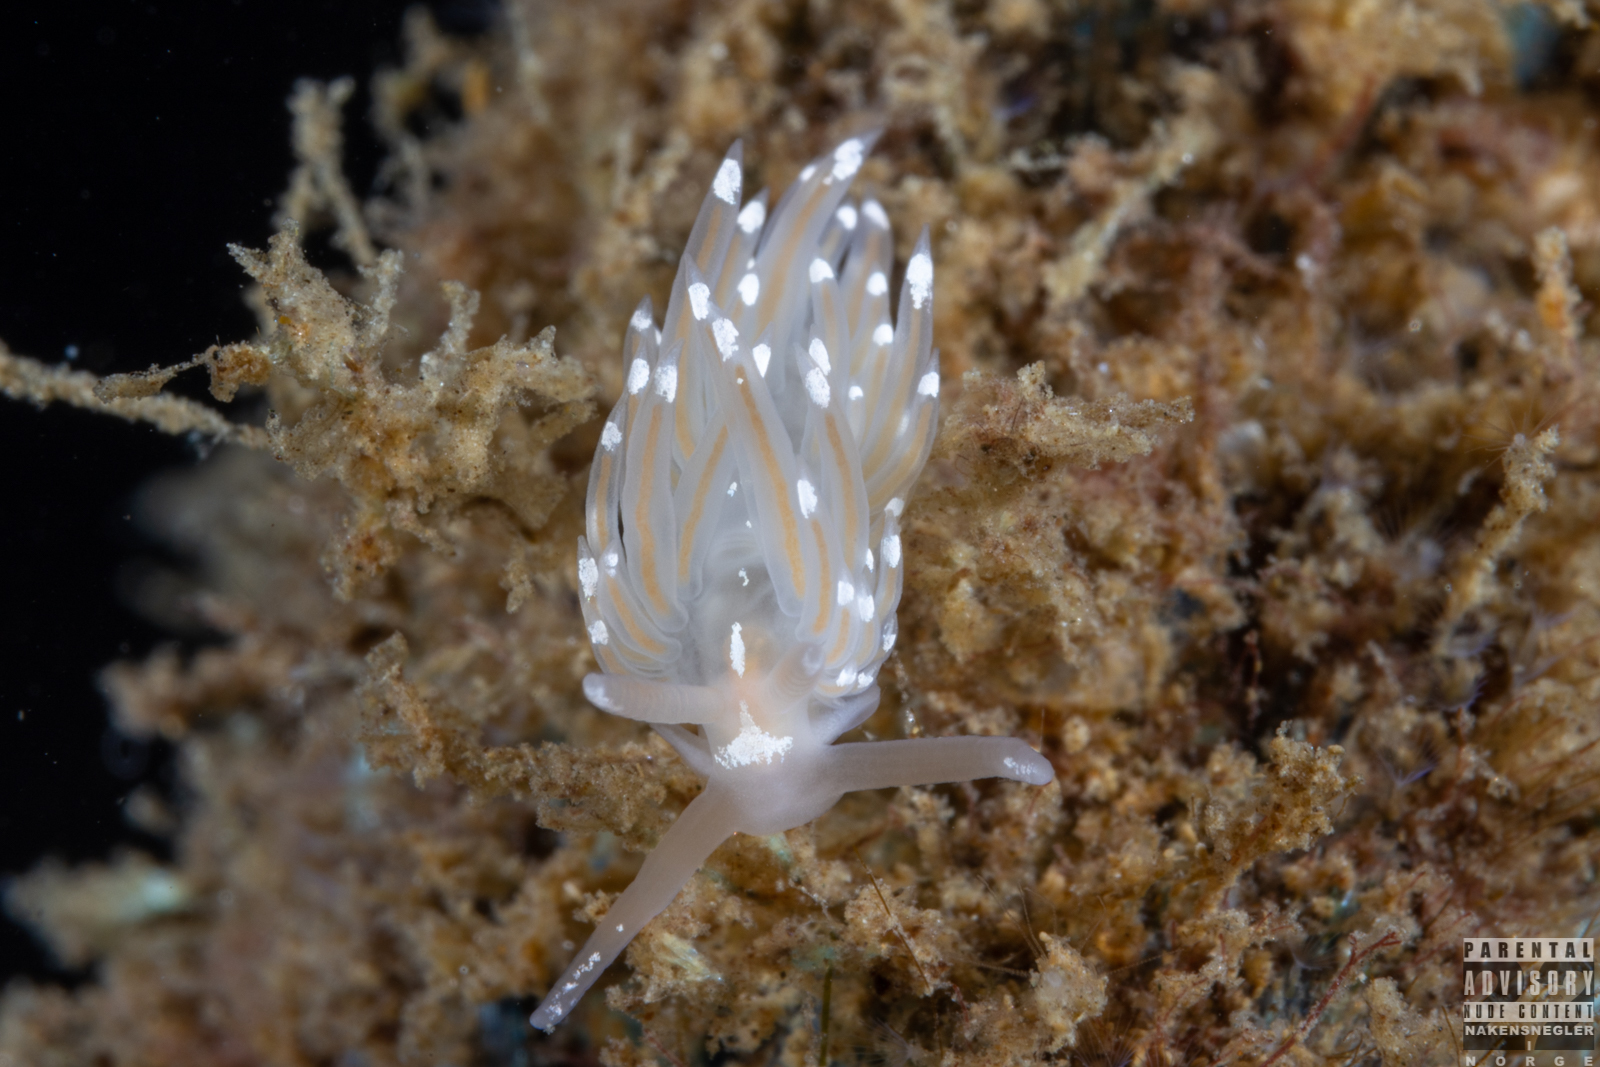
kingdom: Animalia
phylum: Mollusca
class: Gastropoda
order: Nudibranchia
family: Facelinidae
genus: Facelina
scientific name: Facelina bostoniensis
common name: Boston facelina
